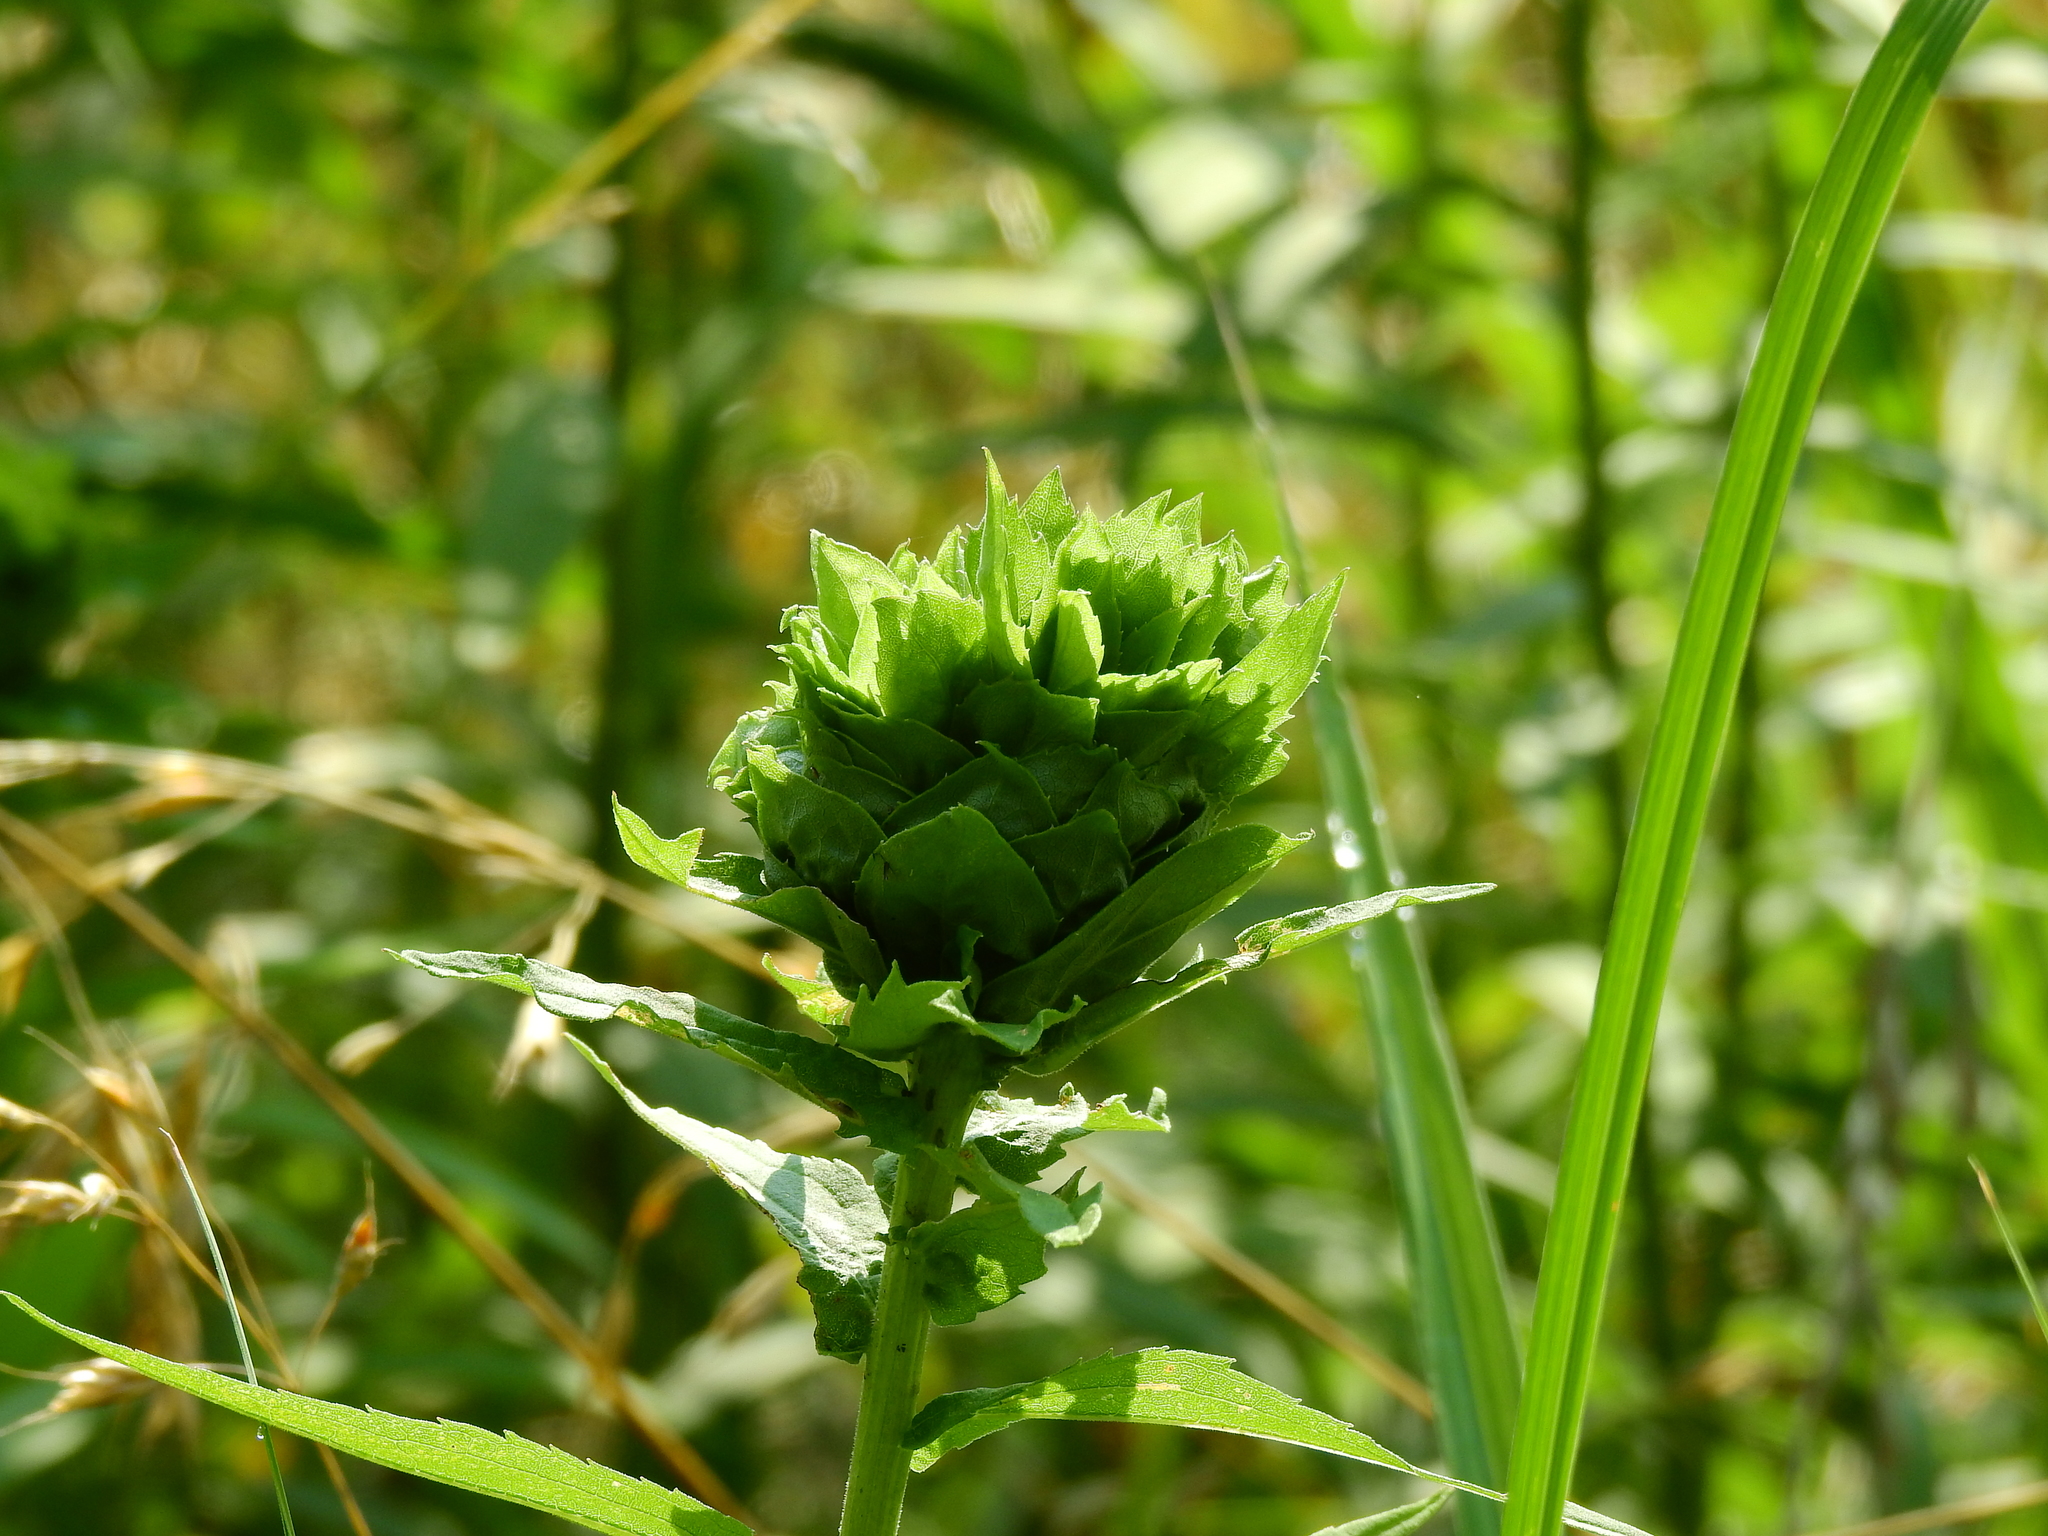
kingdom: Animalia
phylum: Arthropoda
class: Insecta
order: Diptera
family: Cecidomyiidae
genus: Rhopalomyia
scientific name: Rhopalomyia solidaginis
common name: Goldenrod bunch gall midge
